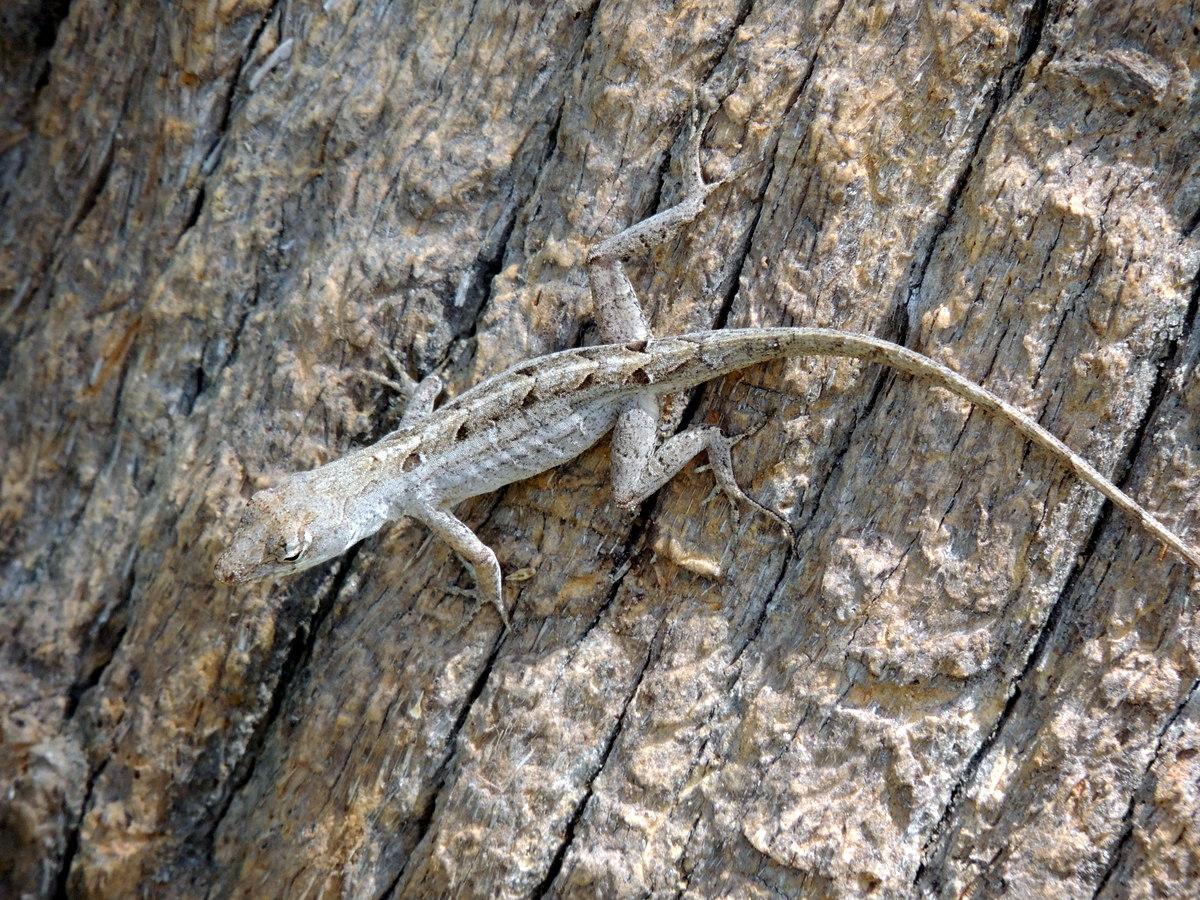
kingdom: Animalia
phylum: Chordata
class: Squamata
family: Dactyloidae
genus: Anolis
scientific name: Anolis sagrei
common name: Brown anole
